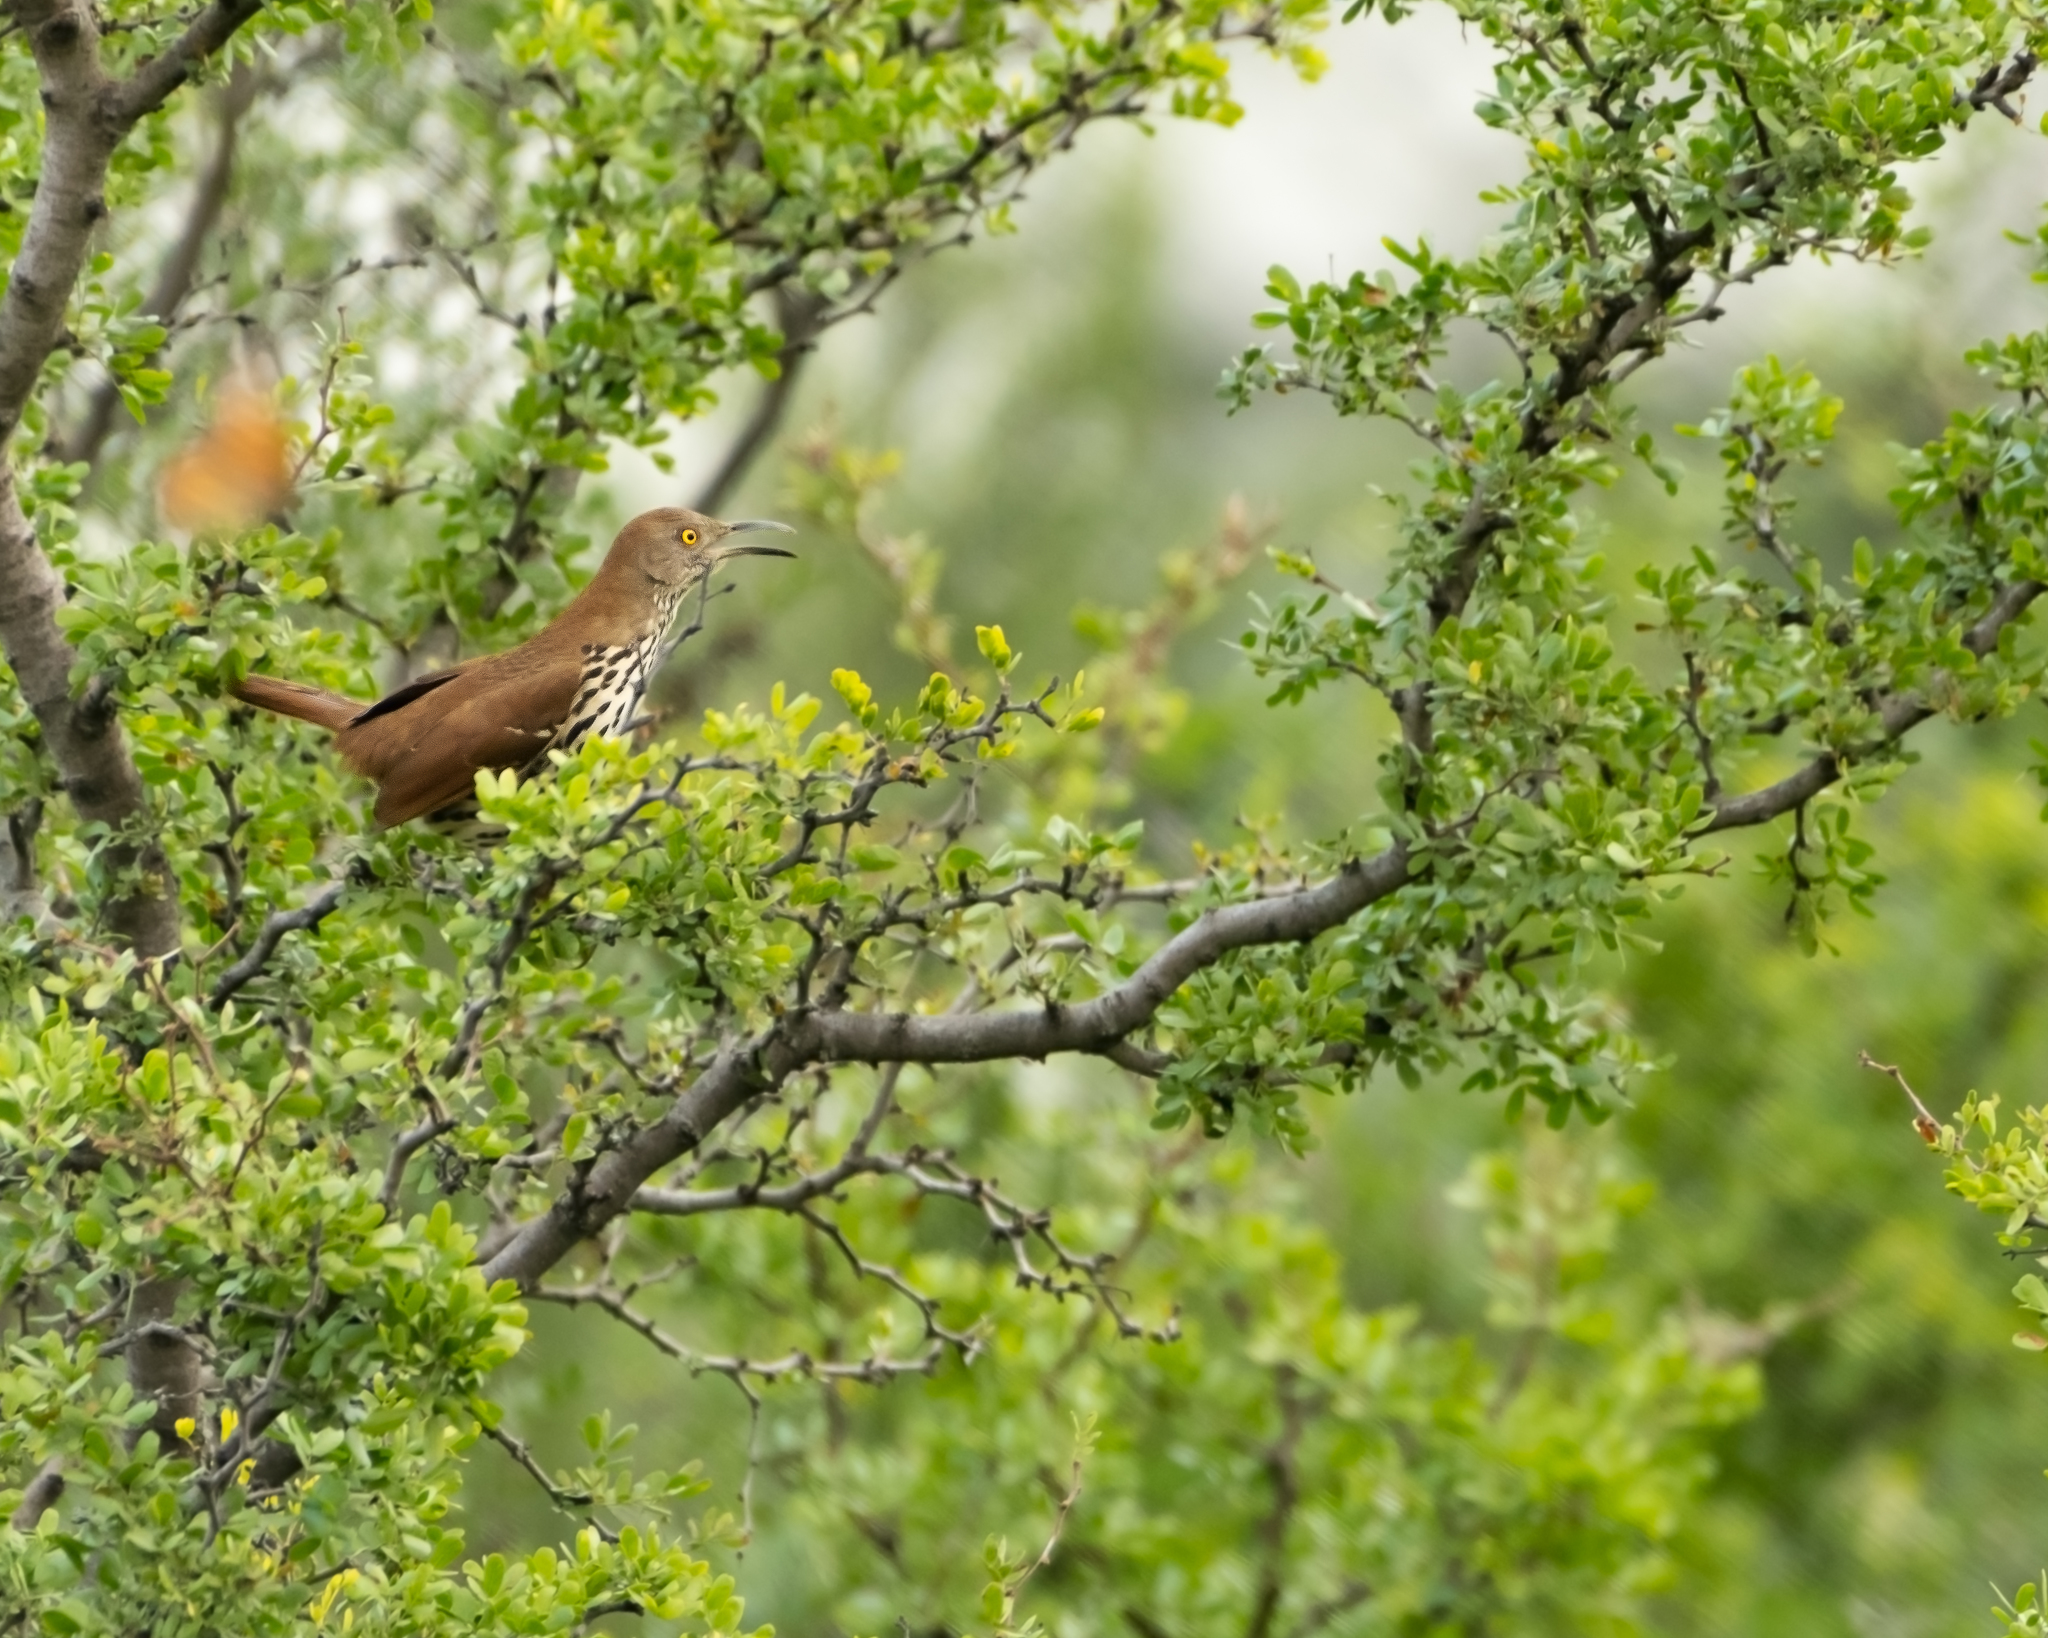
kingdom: Animalia
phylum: Chordata
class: Aves
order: Passeriformes
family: Mimidae
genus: Toxostoma
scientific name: Toxostoma longirostre
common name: Long-billed thrasher
